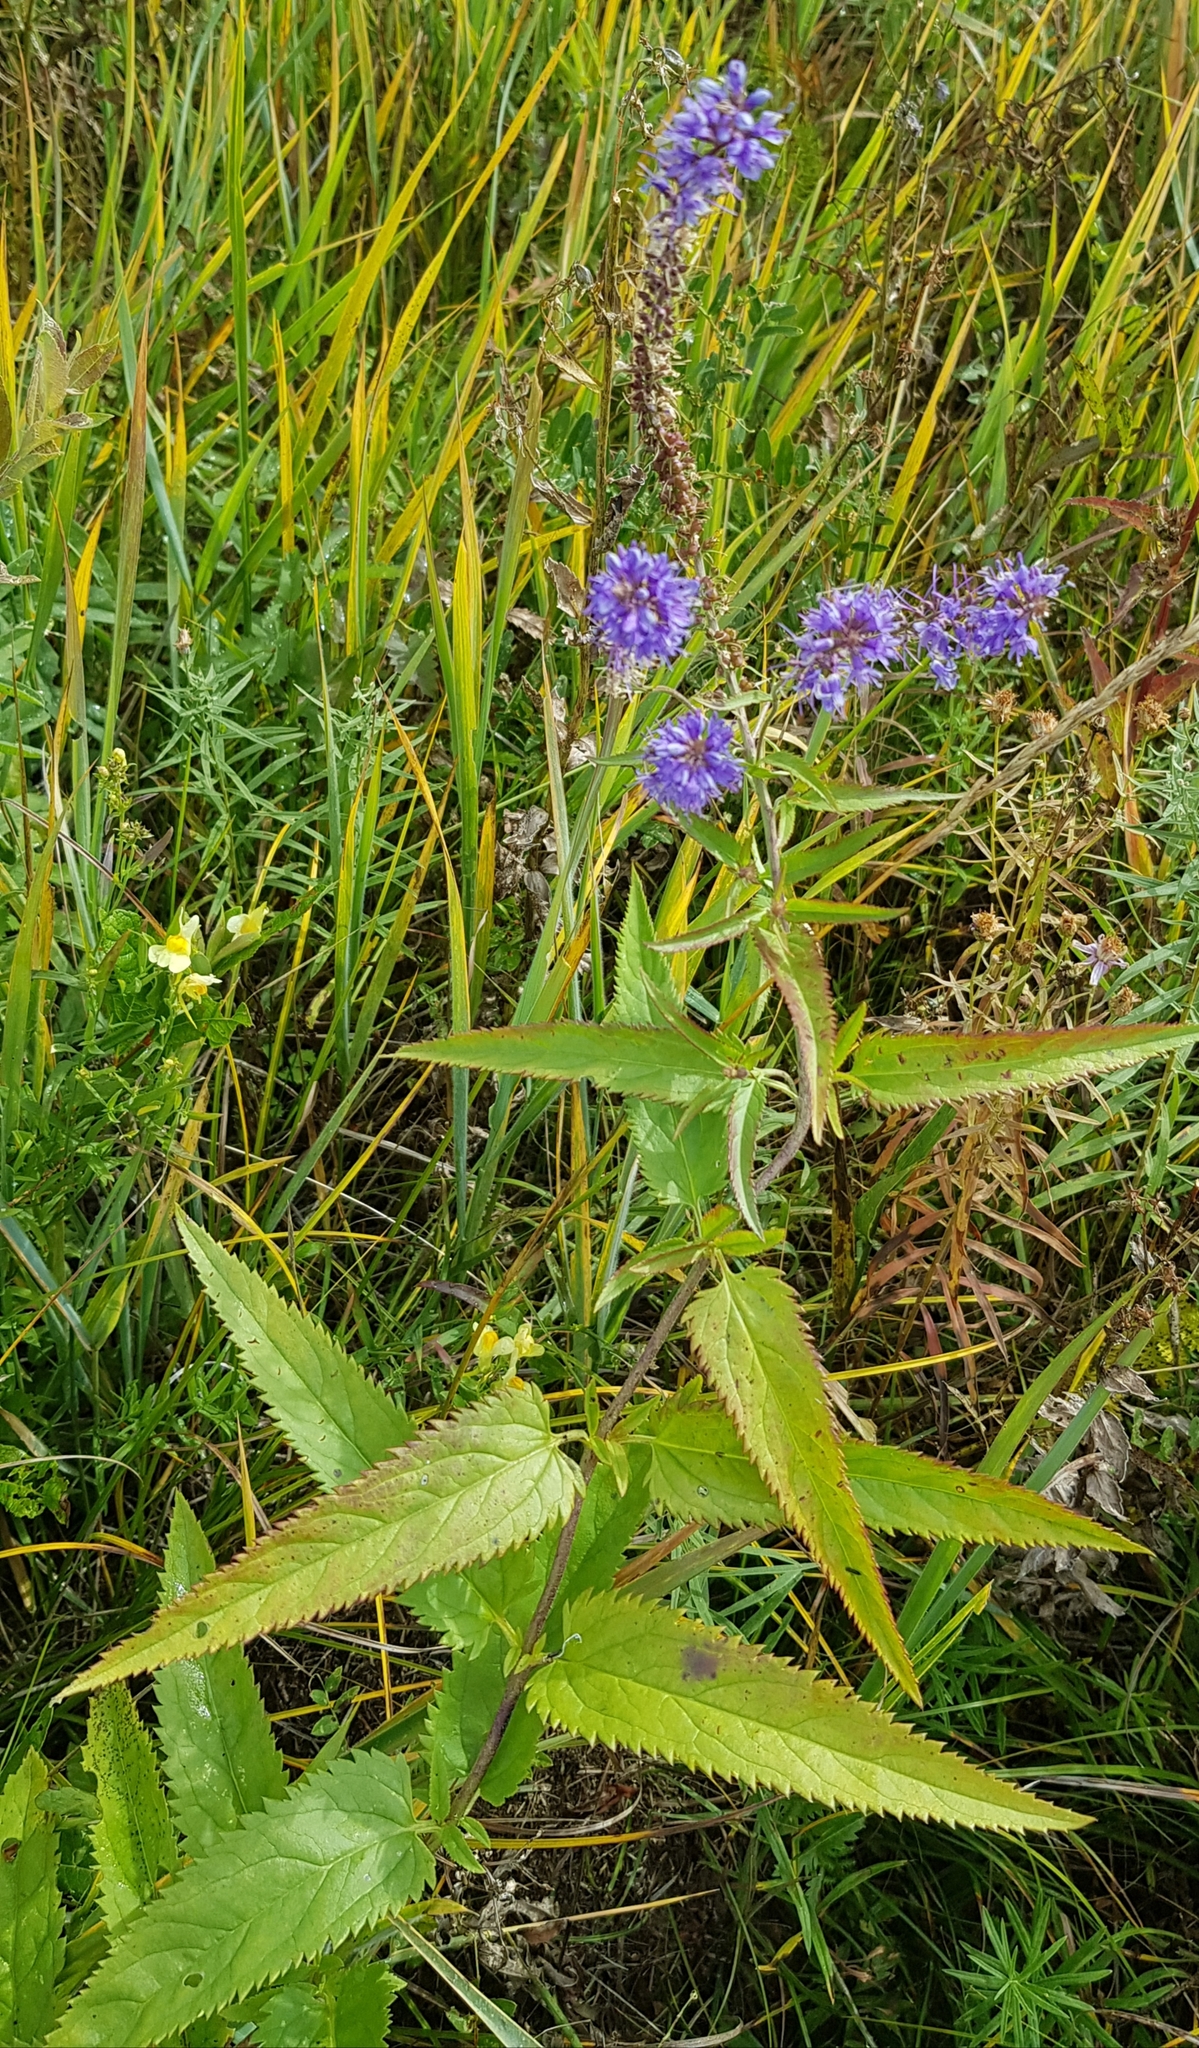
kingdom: Plantae
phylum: Tracheophyta
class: Magnoliopsida
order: Lamiales
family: Plantaginaceae
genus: Veronica
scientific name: Veronica longifolia
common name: Garden speedwell
